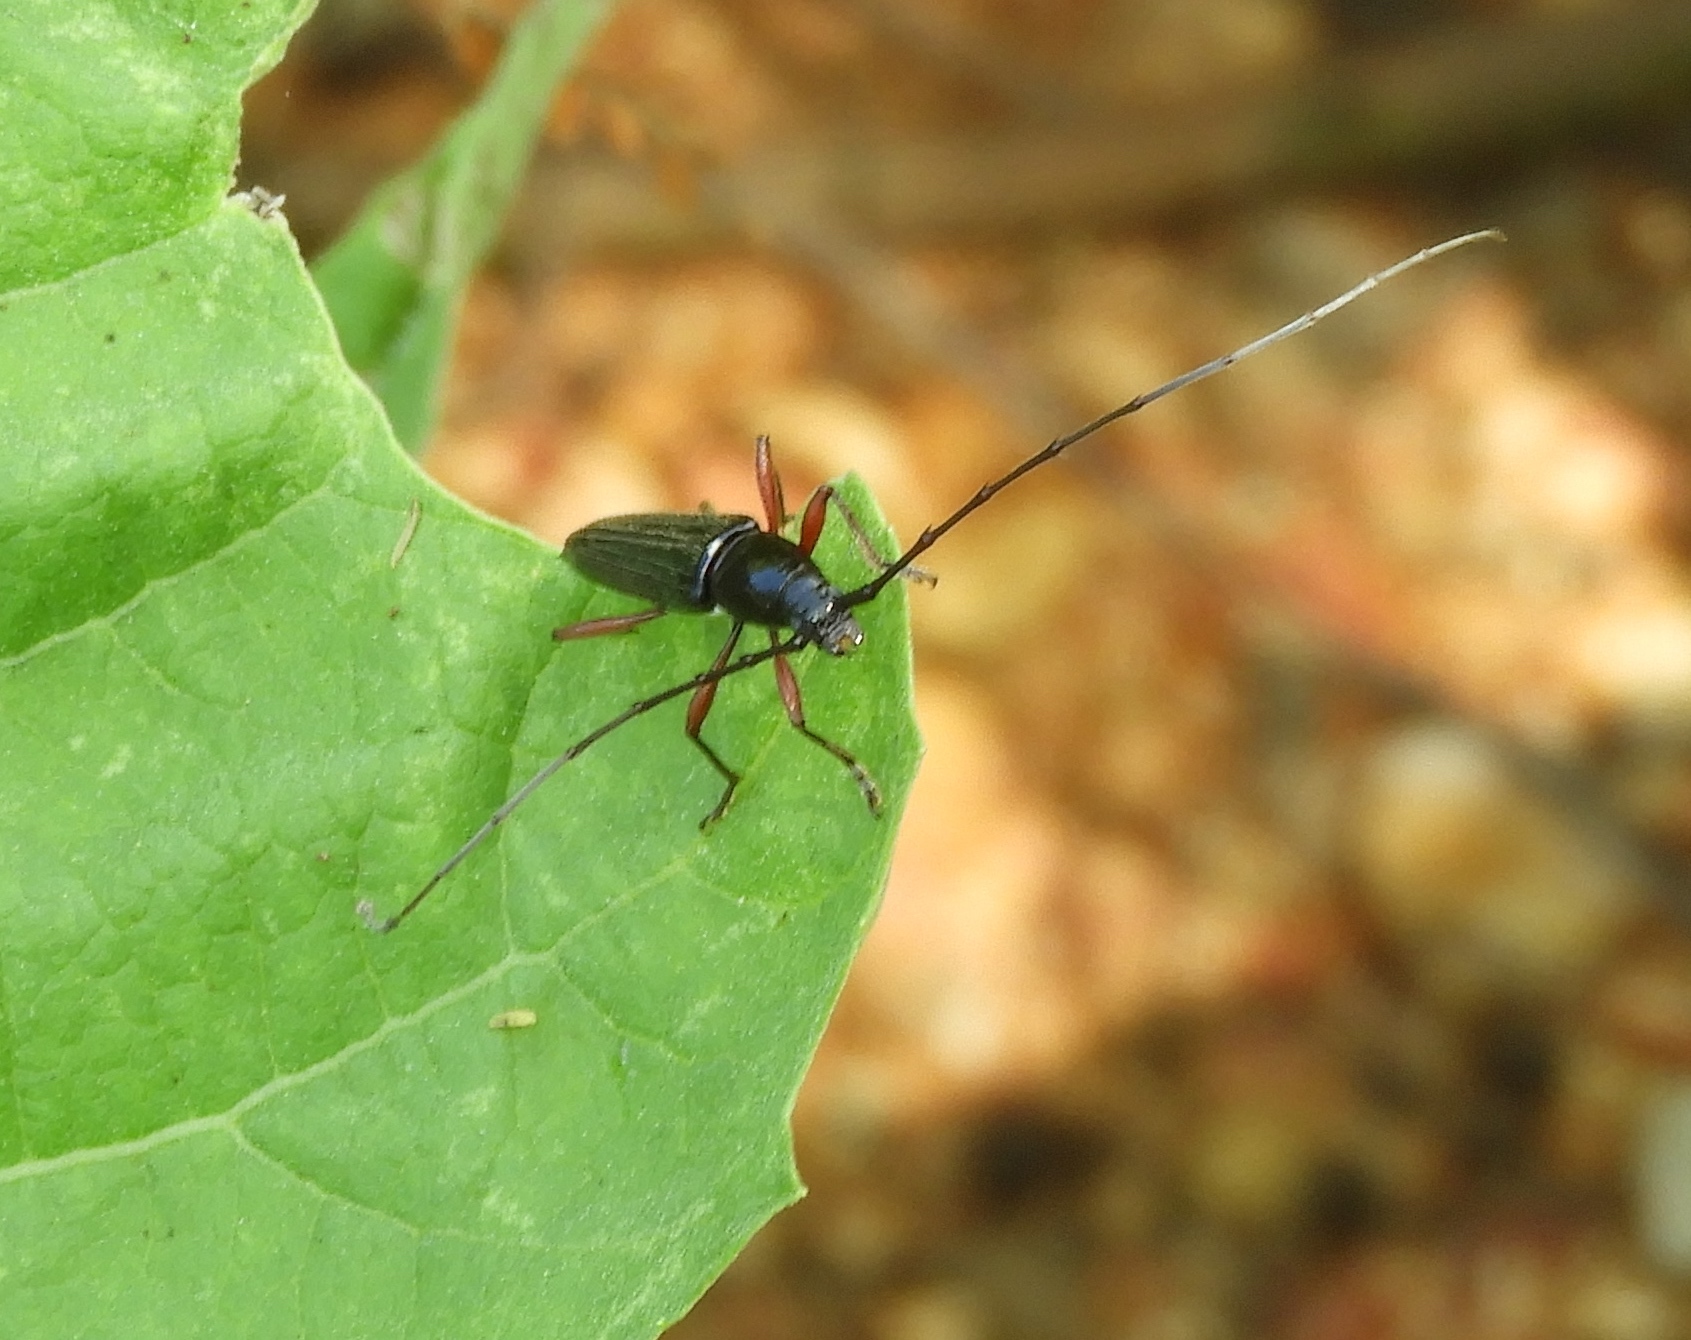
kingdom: Animalia
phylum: Arthropoda
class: Insecta
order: Coleoptera
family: Cerambycidae
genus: Stenosphenus
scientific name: Stenosphenus
